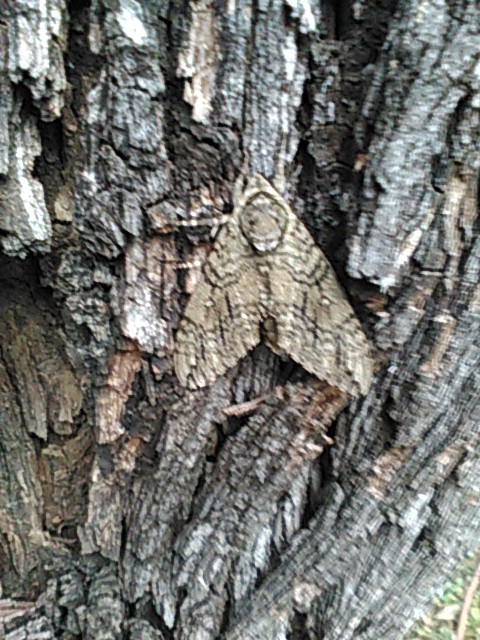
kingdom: Animalia
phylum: Arthropoda
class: Insecta
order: Lepidoptera
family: Sphingidae
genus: Ceratomia
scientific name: Ceratomia undulosa
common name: Waved sphinx
